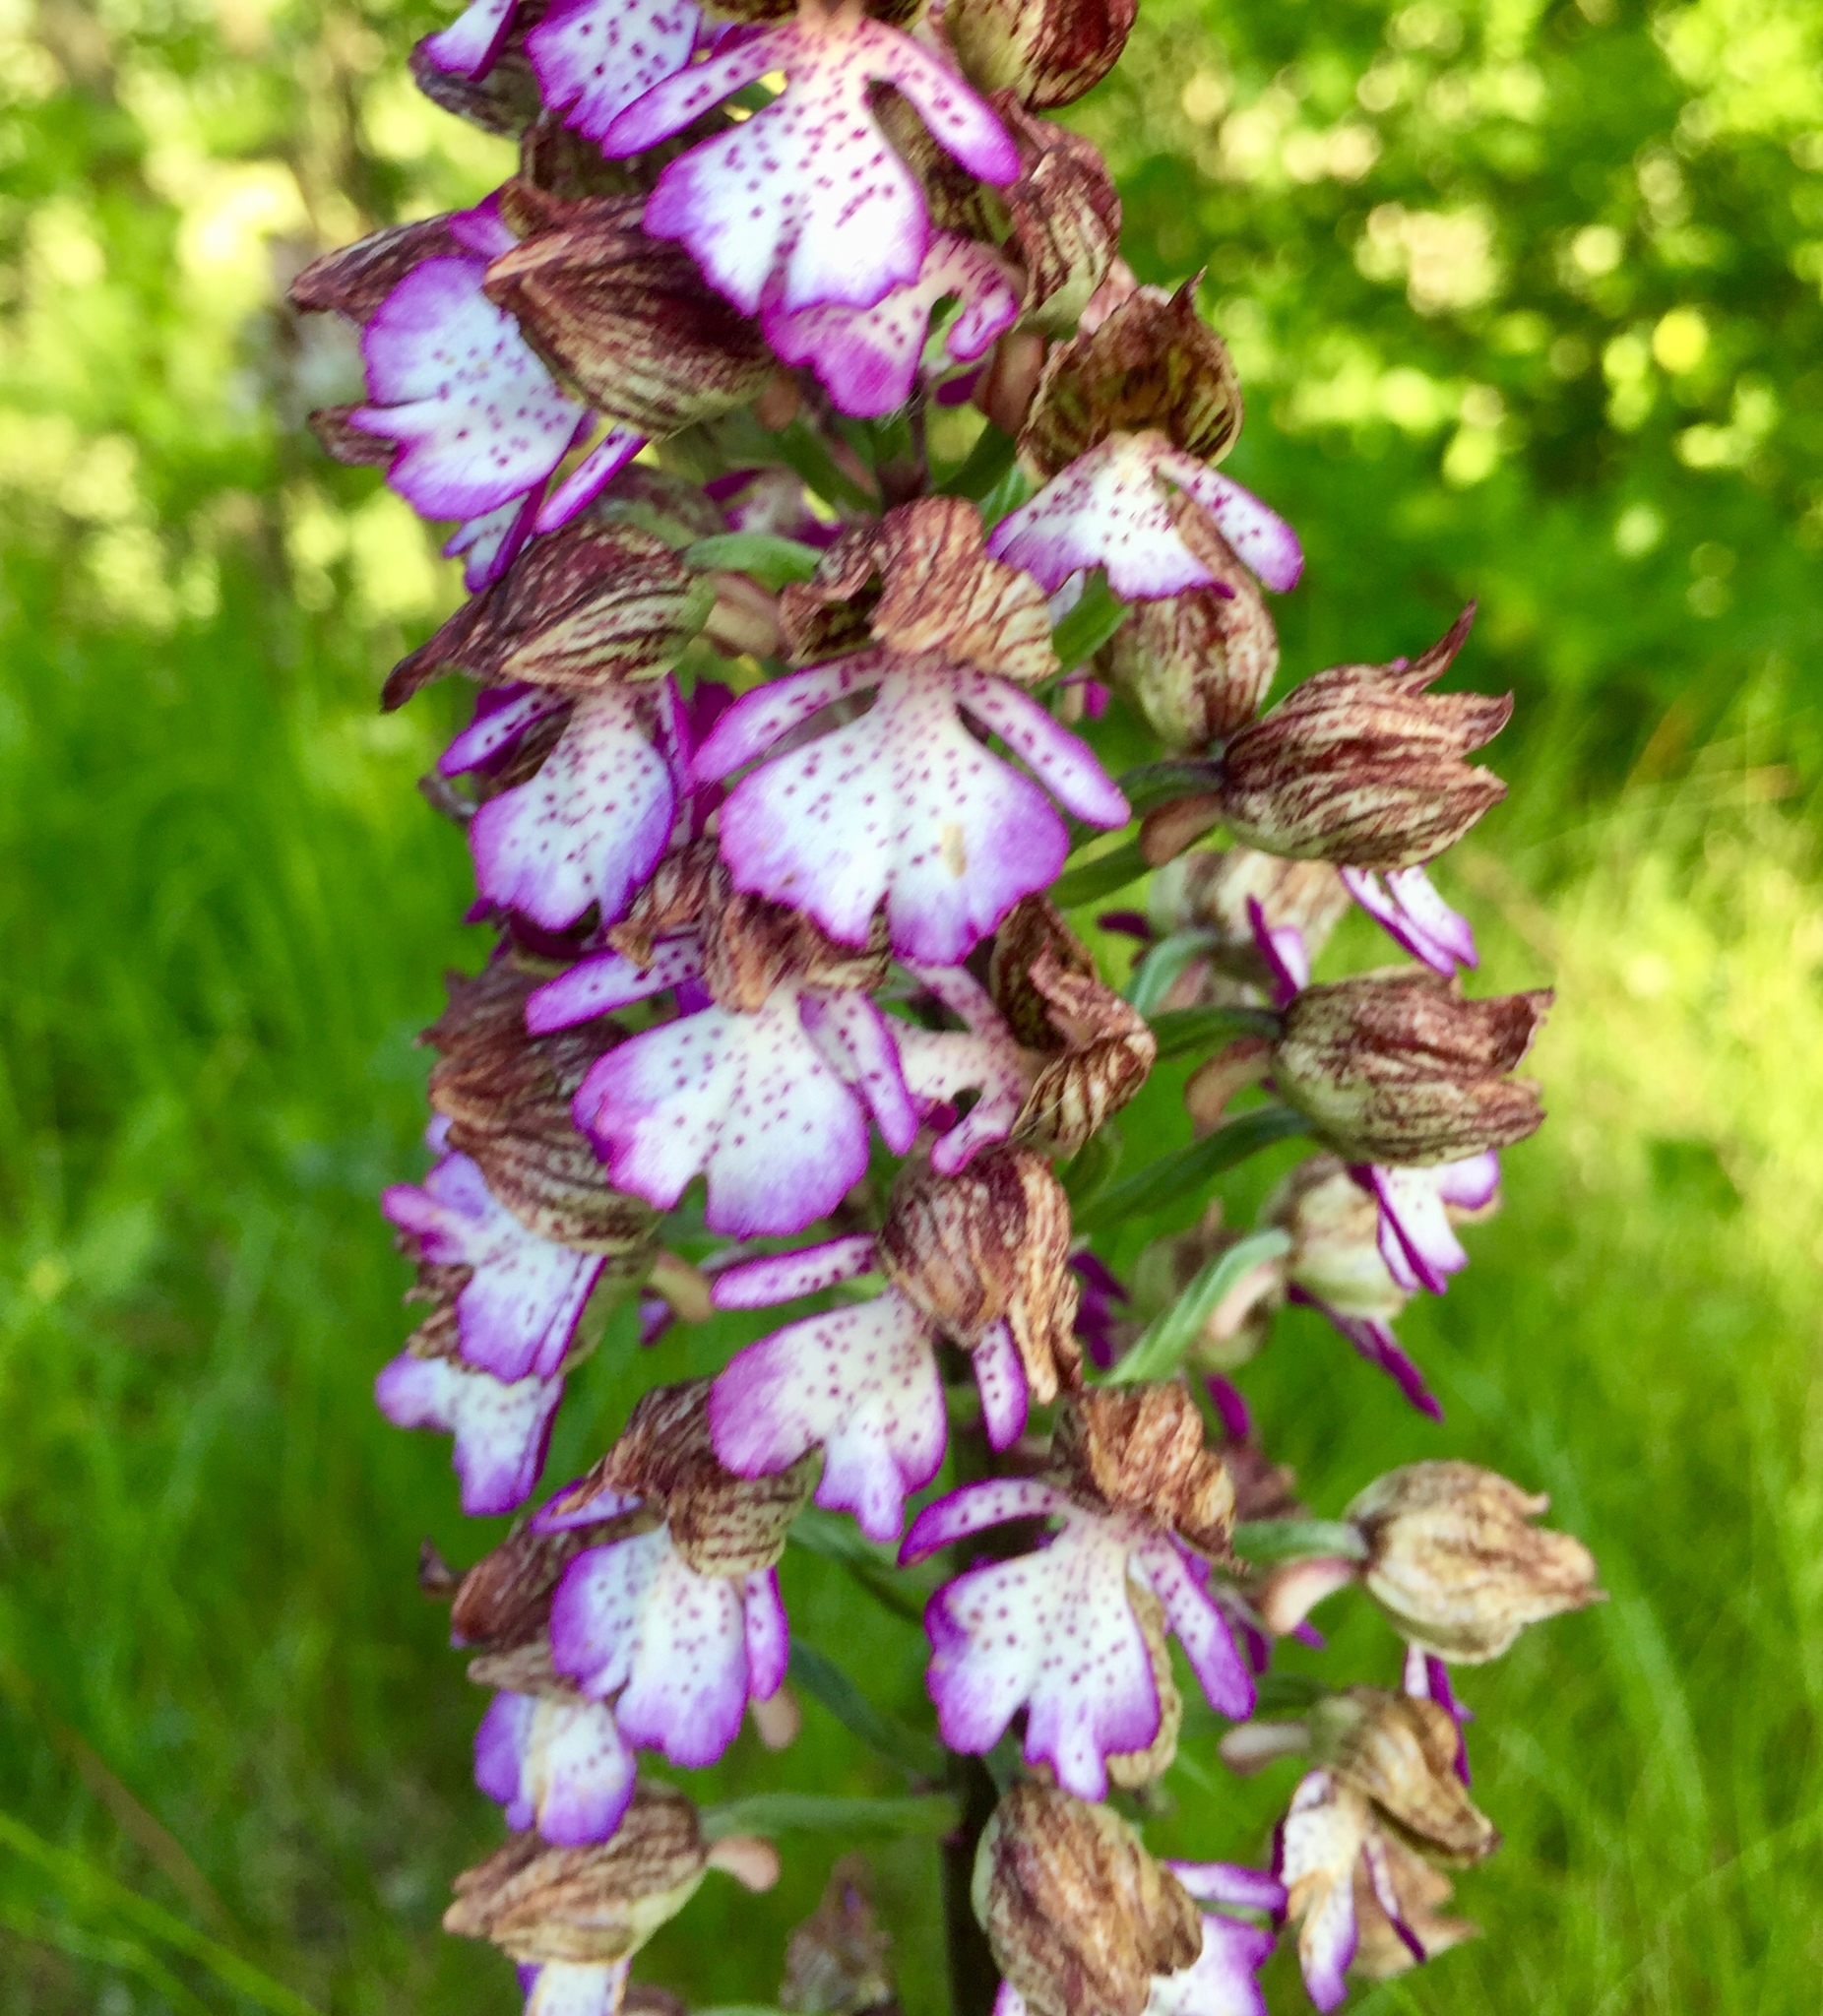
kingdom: Plantae
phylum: Tracheophyta
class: Liliopsida
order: Asparagales
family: Orchidaceae
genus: Orchis
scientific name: Orchis purpurea
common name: Lady orchid
